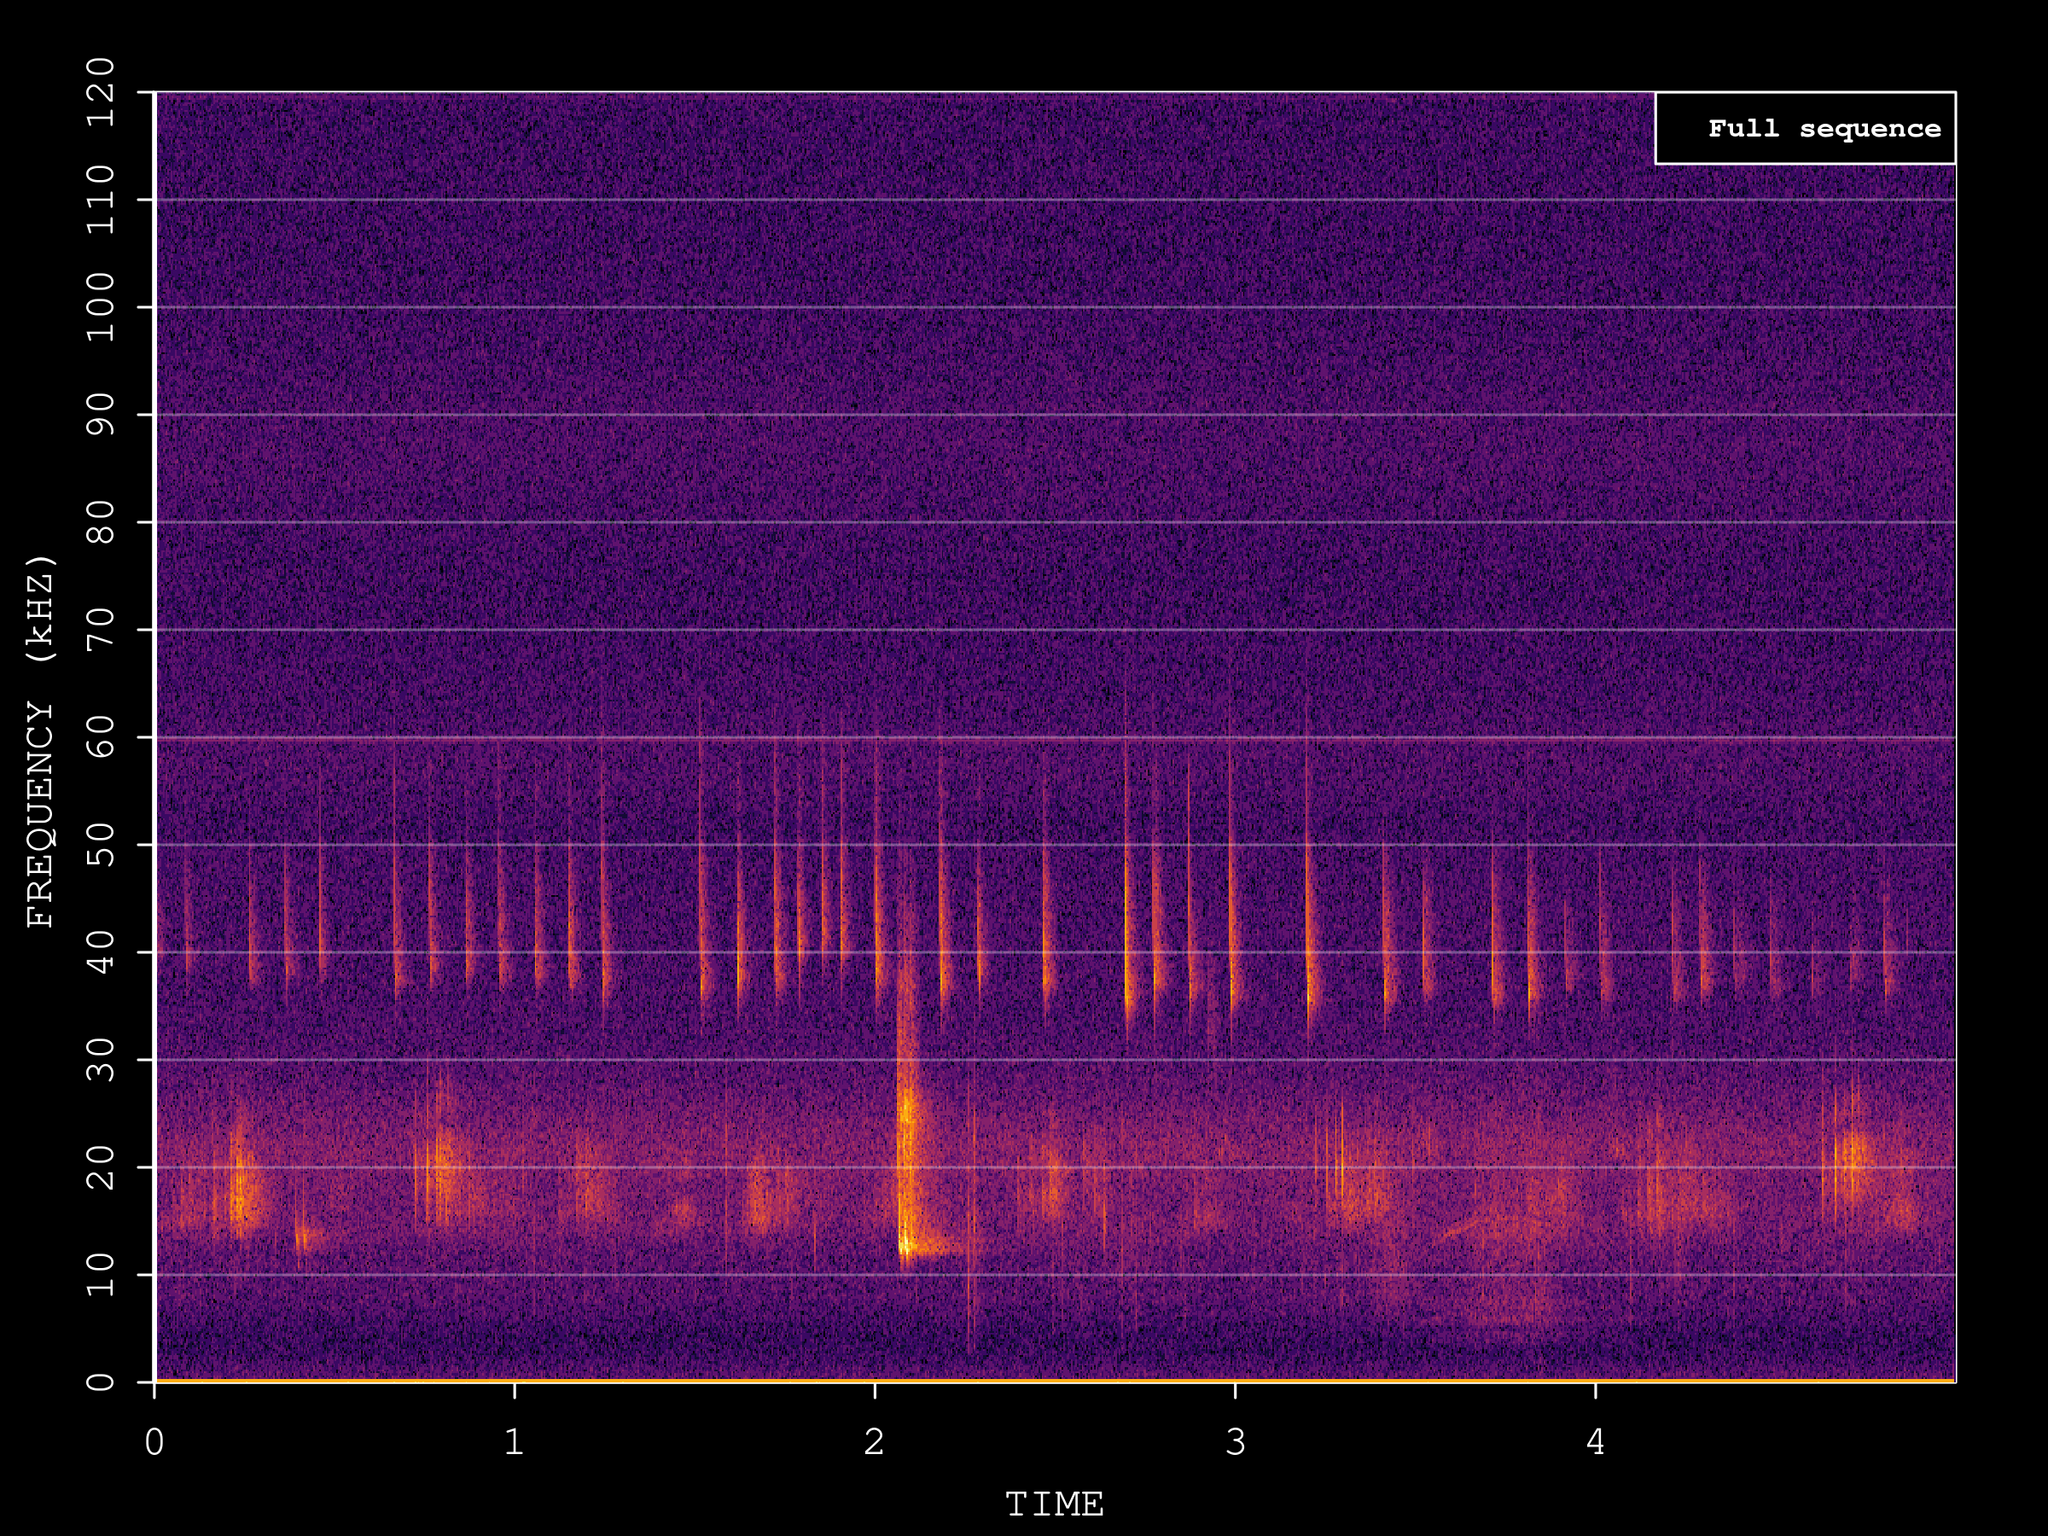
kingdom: Animalia
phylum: Chordata
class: Mammalia
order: Chiroptera
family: Vespertilionidae
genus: Pipistrellus
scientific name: Pipistrellus kuhlii
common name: Kuhl's pipistrelle
